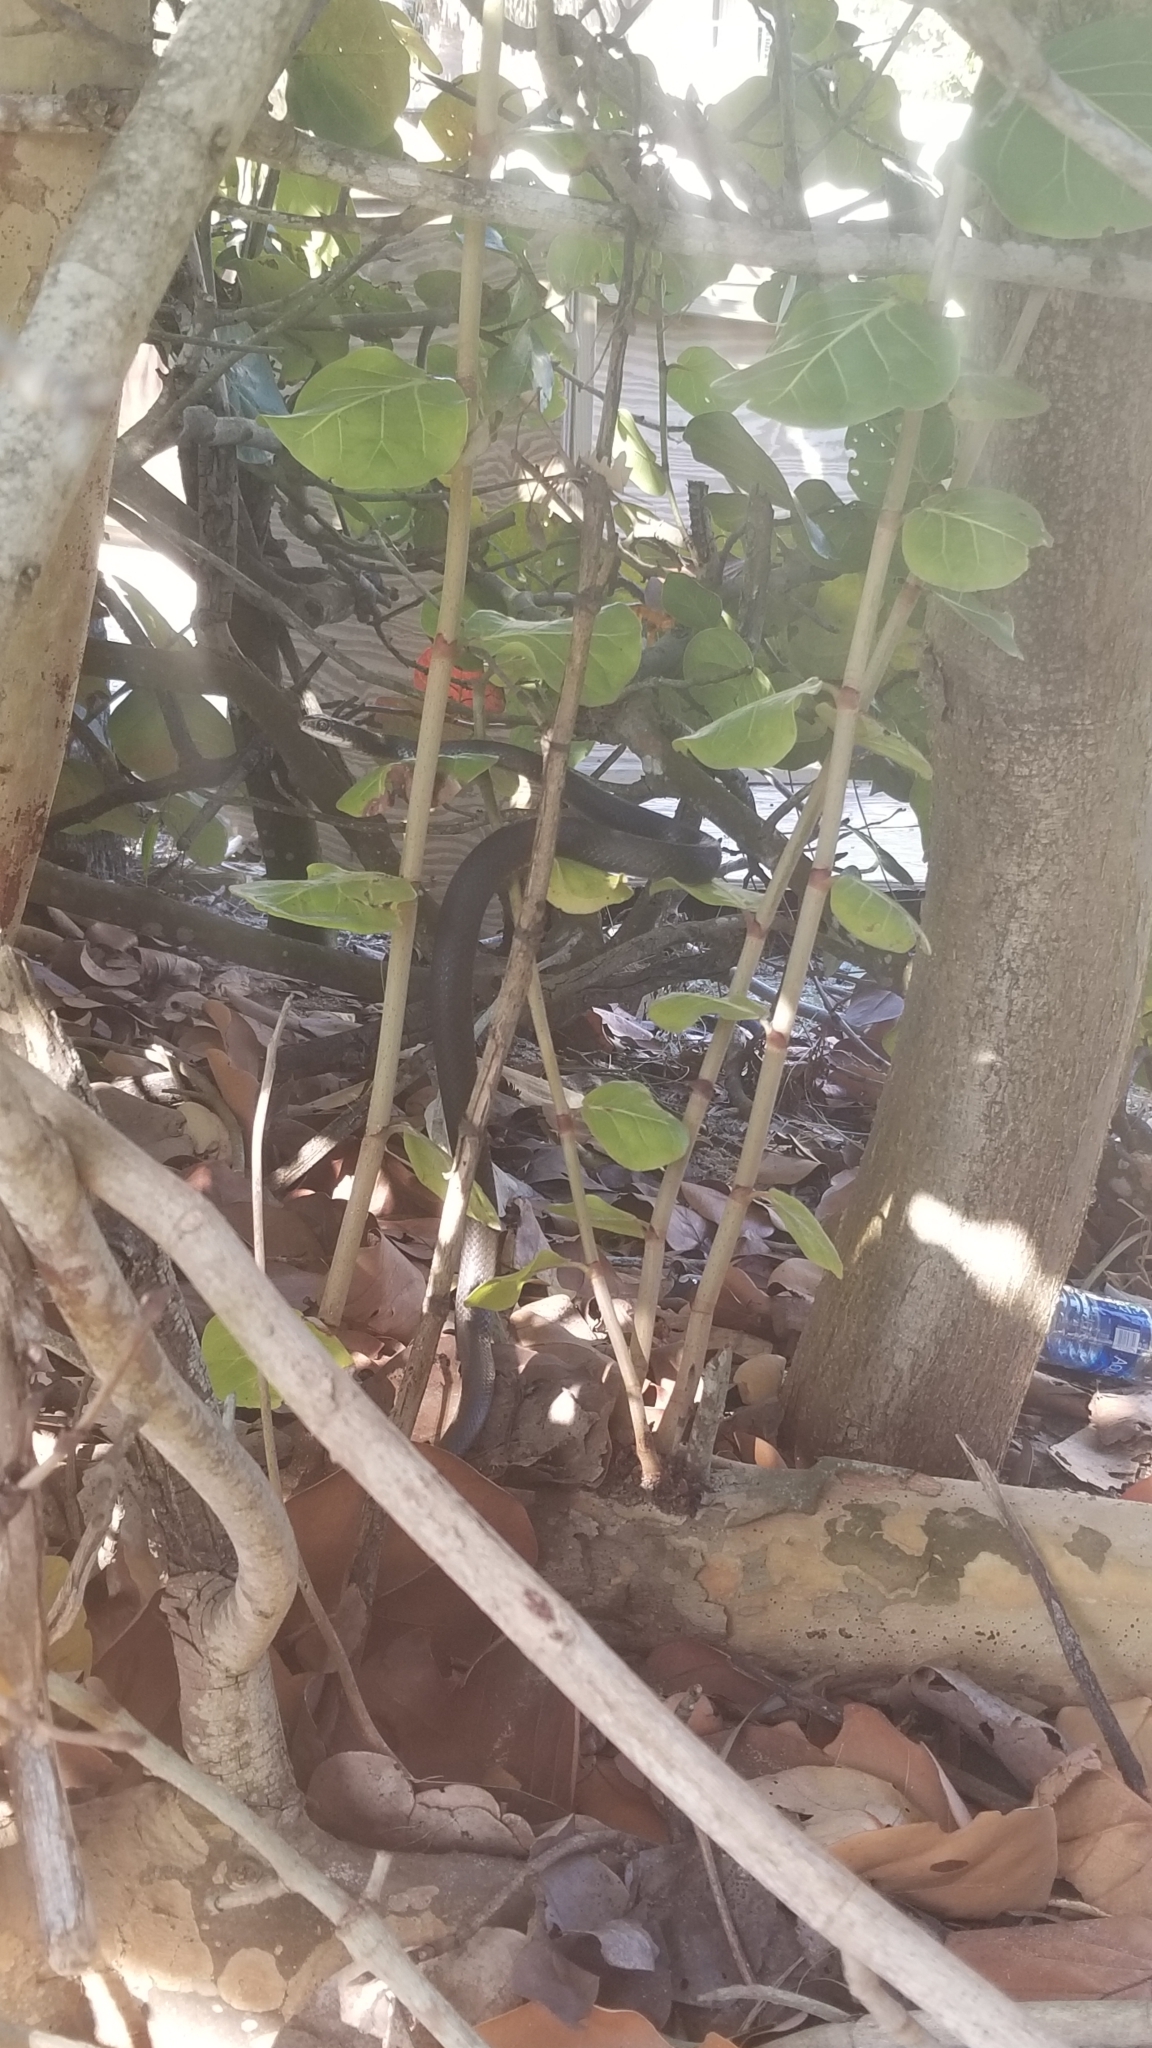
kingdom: Animalia
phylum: Chordata
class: Squamata
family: Colubridae
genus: Coluber
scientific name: Coluber constrictor
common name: Eastern racer
